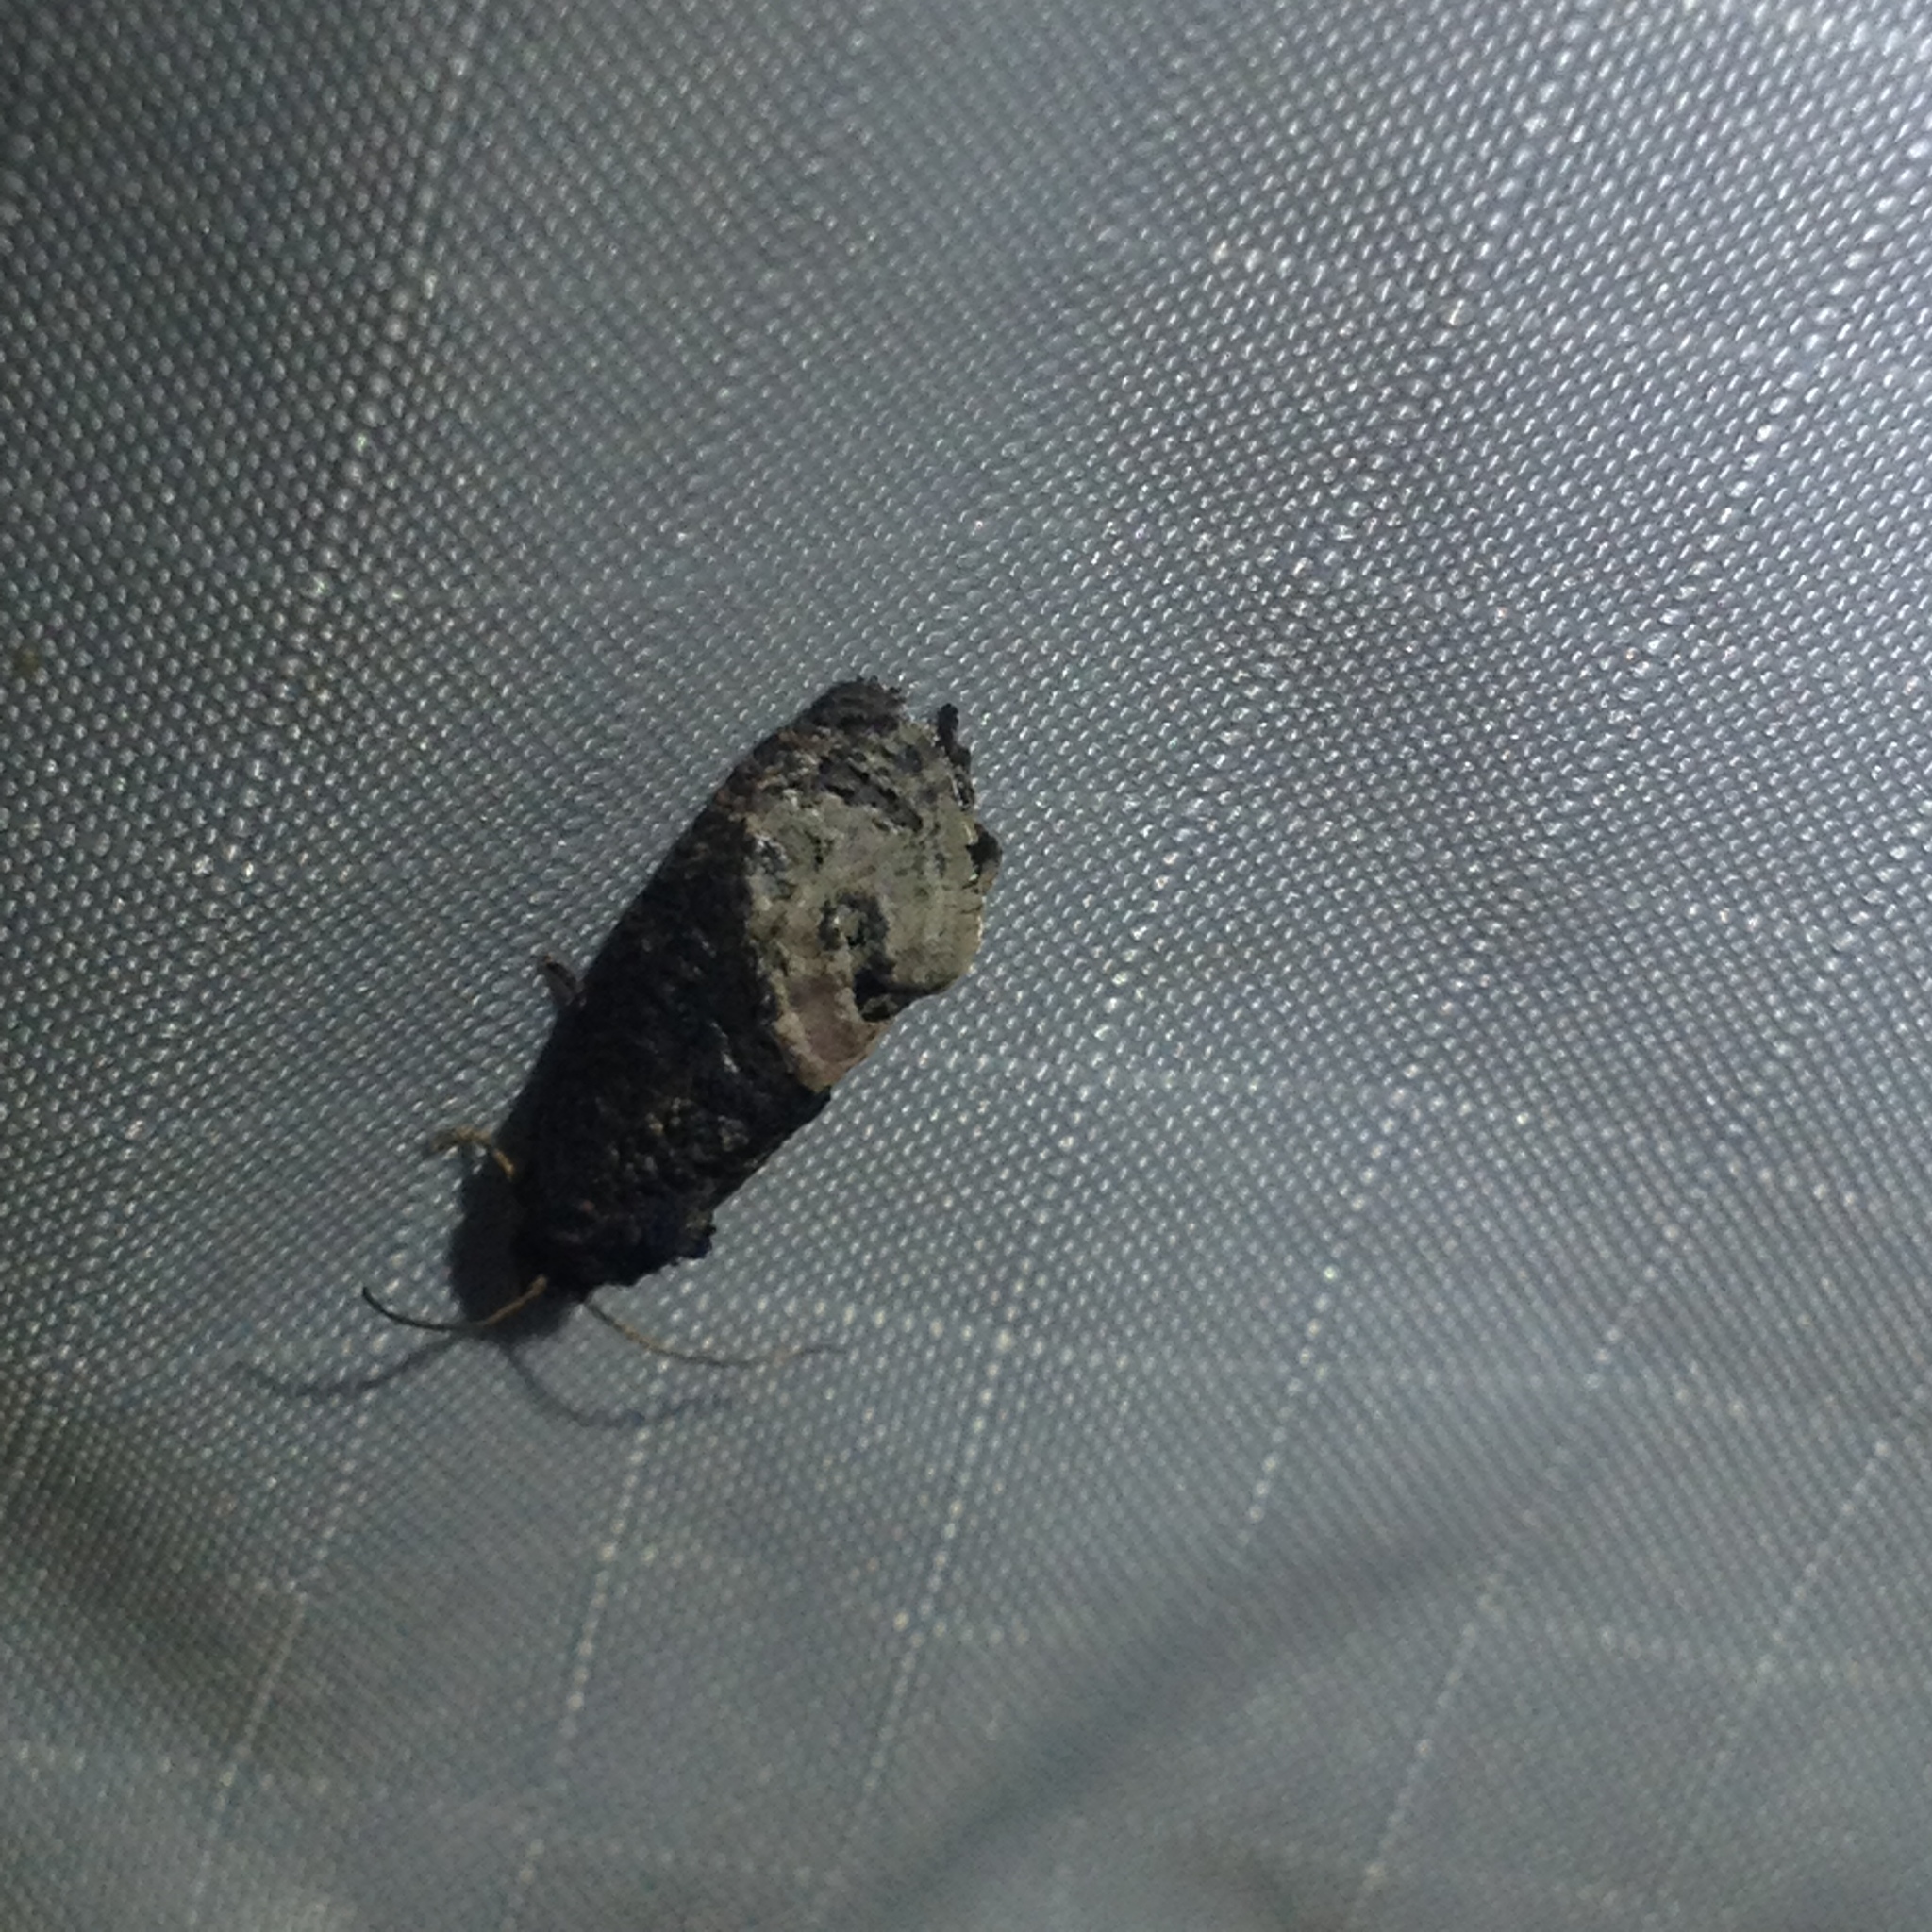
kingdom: Animalia
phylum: Arthropoda
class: Insecta
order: Lepidoptera
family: Tortricidae
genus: Ecdytolopha
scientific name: Ecdytolopha insiticiana
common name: Locust twig borer moth
